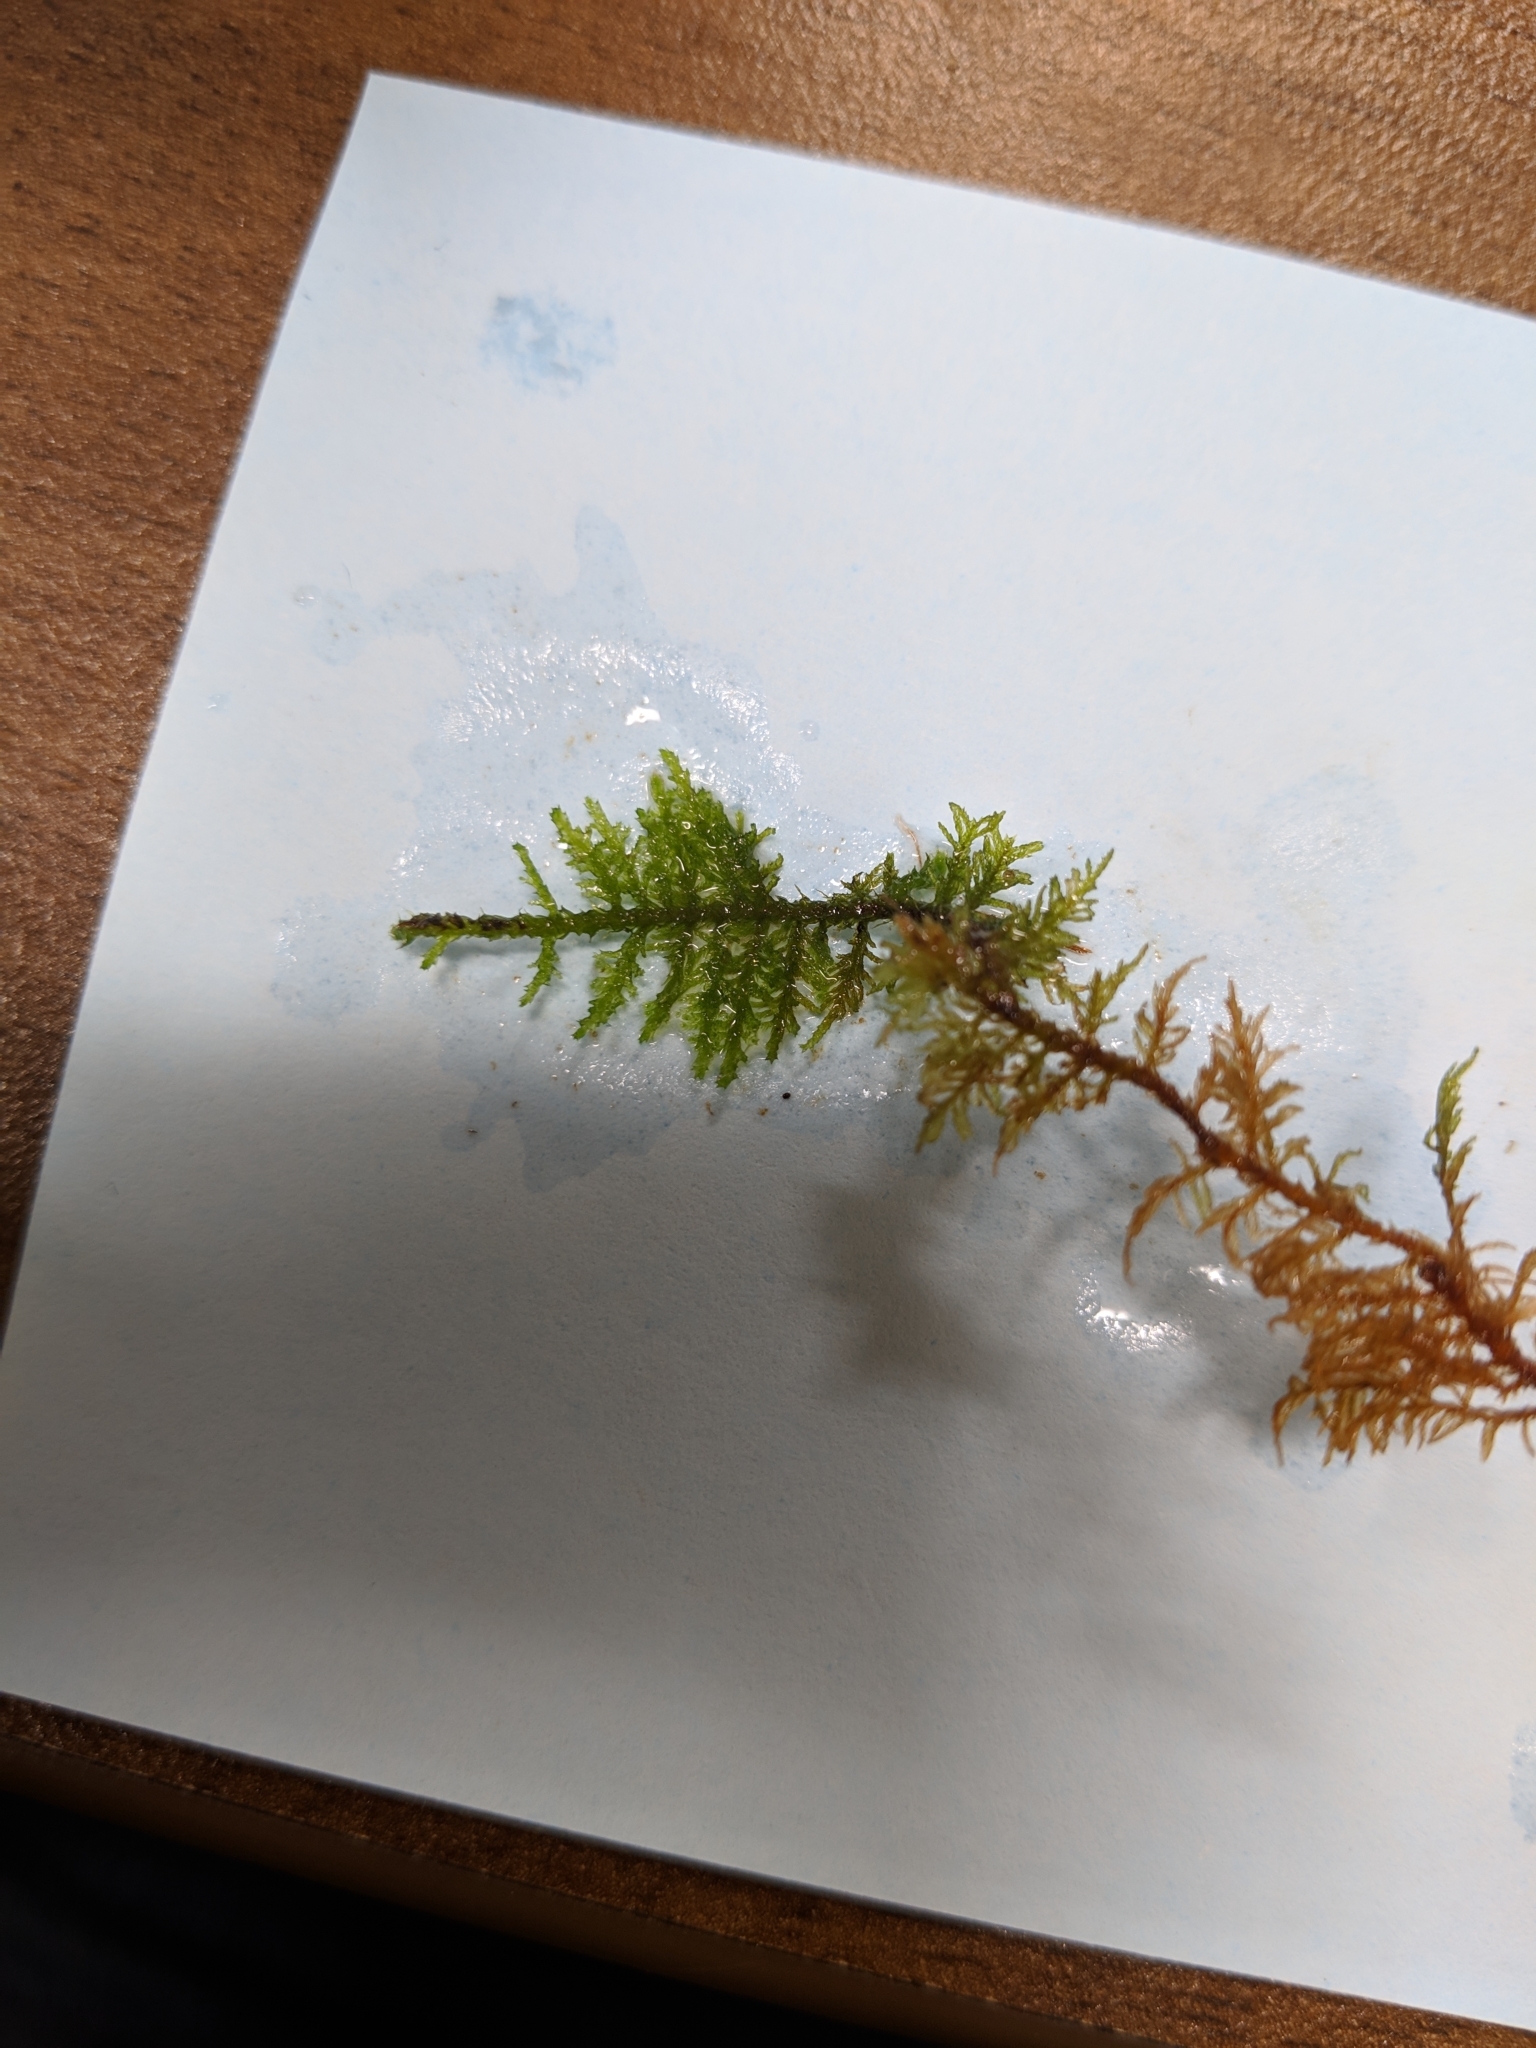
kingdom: Plantae
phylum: Bryophyta
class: Bryopsida
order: Hypnales
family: Thuidiaceae
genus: Thuidium
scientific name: Thuidium delicatulum
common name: Delicate fern moss
